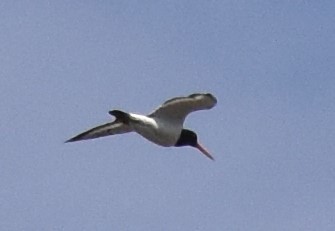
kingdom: Animalia
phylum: Chordata
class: Aves
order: Charadriiformes
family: Haematopodidae
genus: Haematopus
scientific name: Haematopus ostralegus
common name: Eurasian oystercatcher
